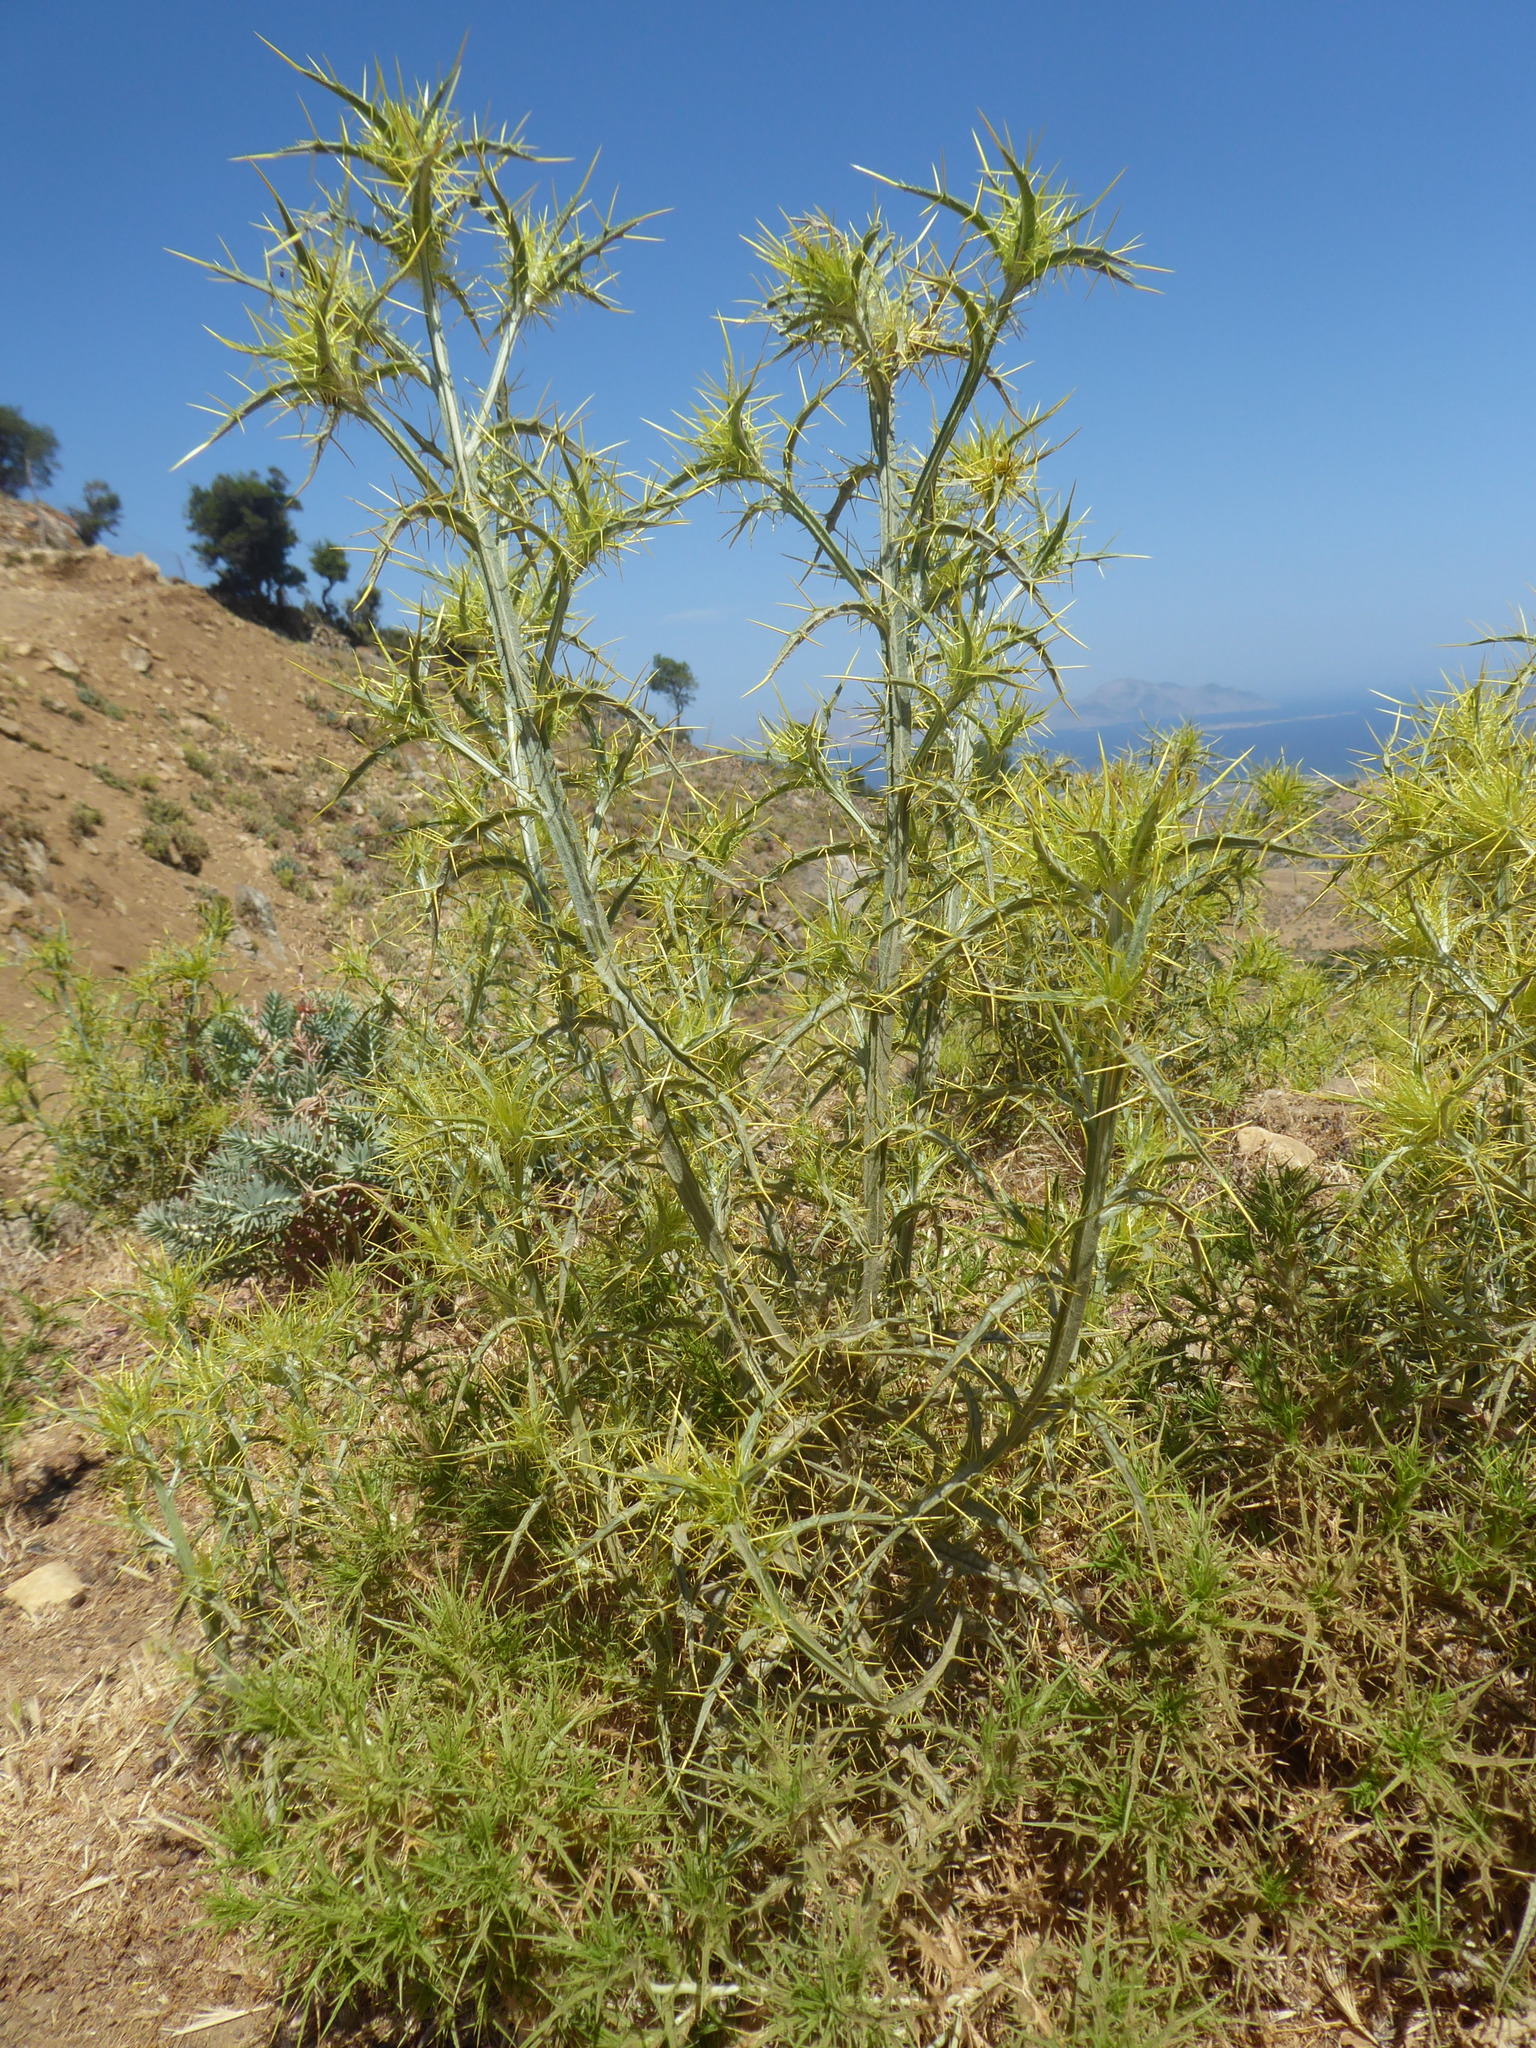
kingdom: Plantae
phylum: Tracheophyta
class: Magnoliopsida
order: Asterales
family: Asteraceae
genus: Picnomon
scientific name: Picnomon acarna
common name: Soldier thistle
